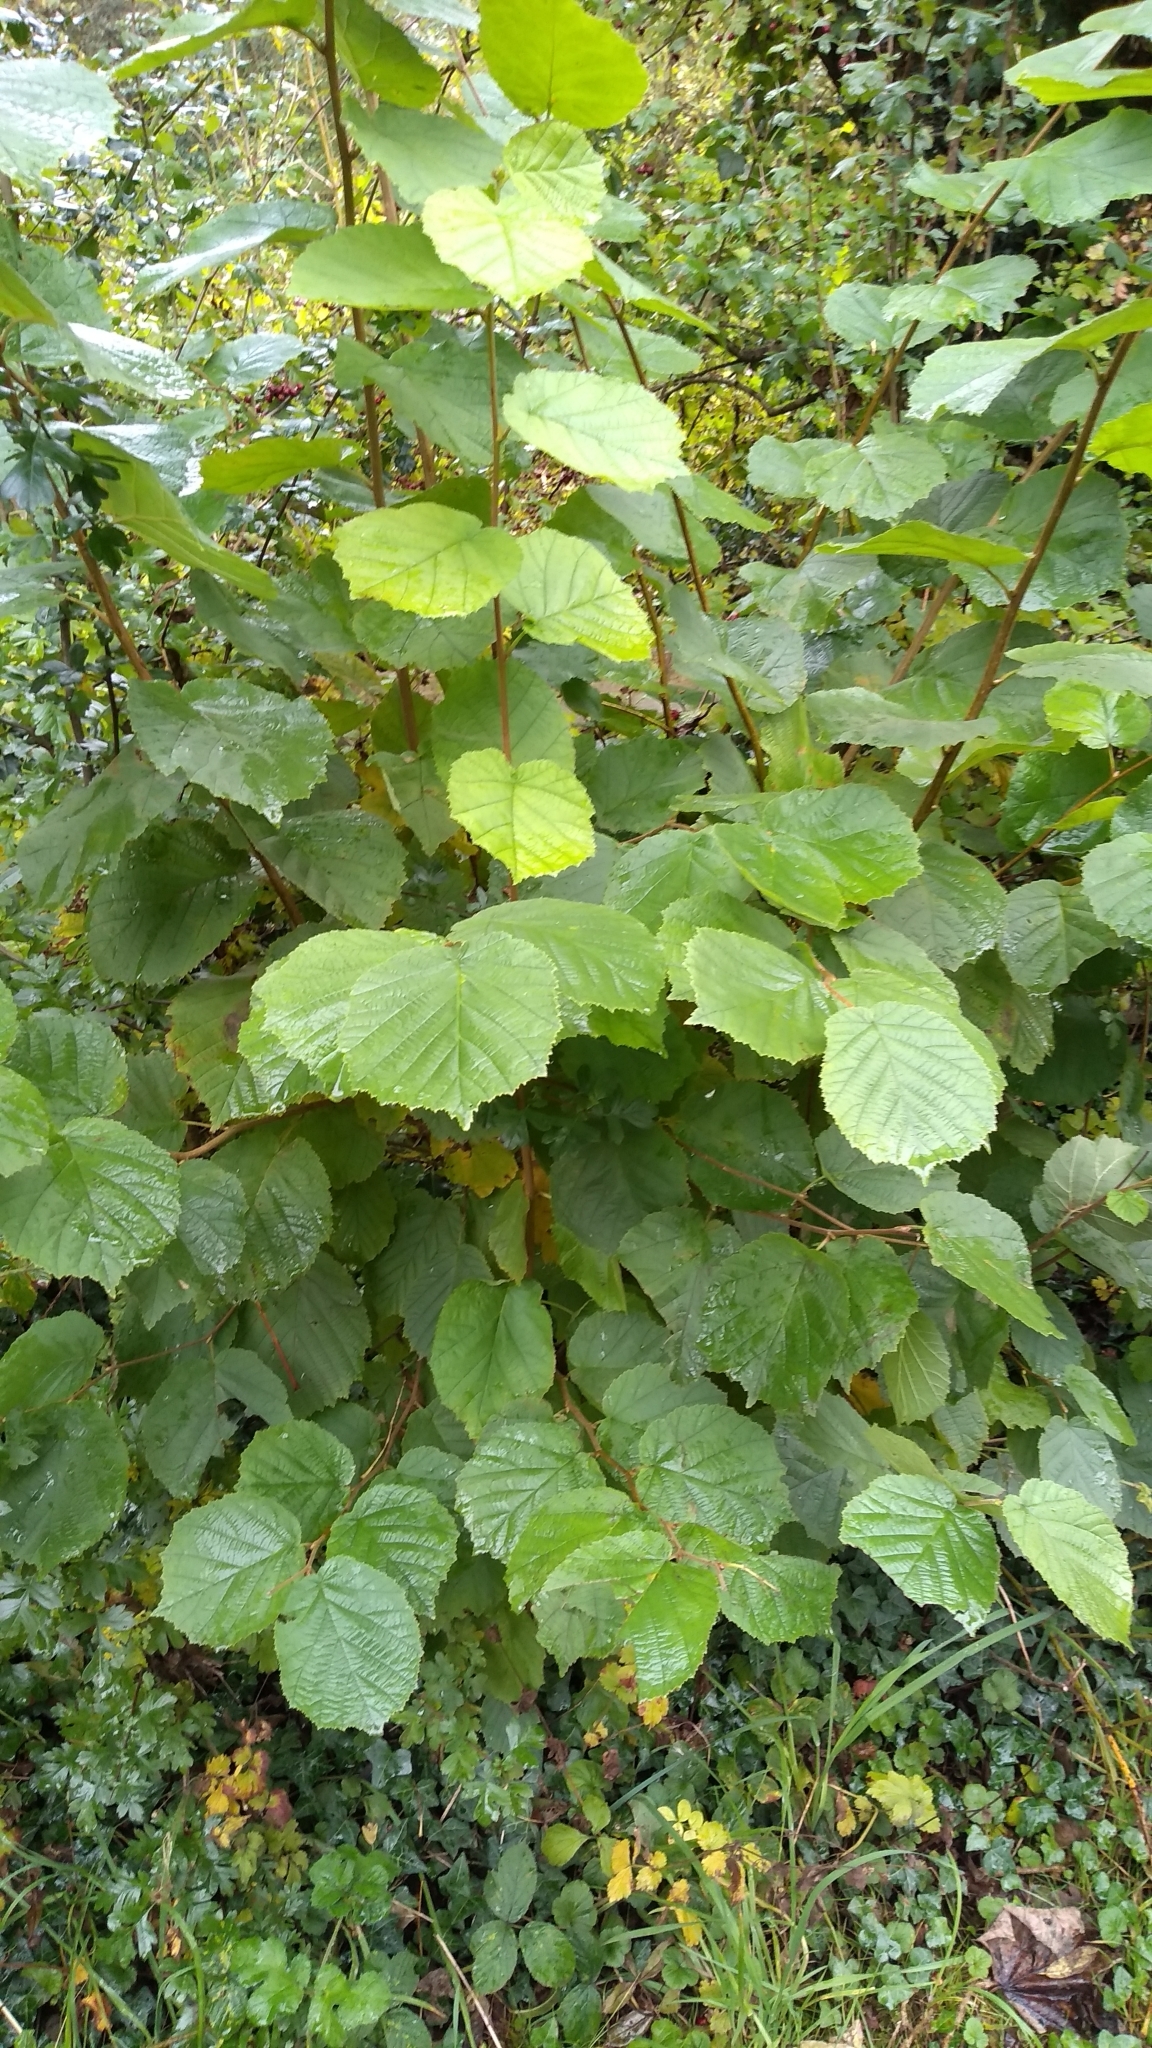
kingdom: Plantae
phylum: Tracheophyta
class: Magnoliopsida
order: Fagales
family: Betulaceae
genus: Corylus
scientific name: Corylus avellana
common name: European hazel
